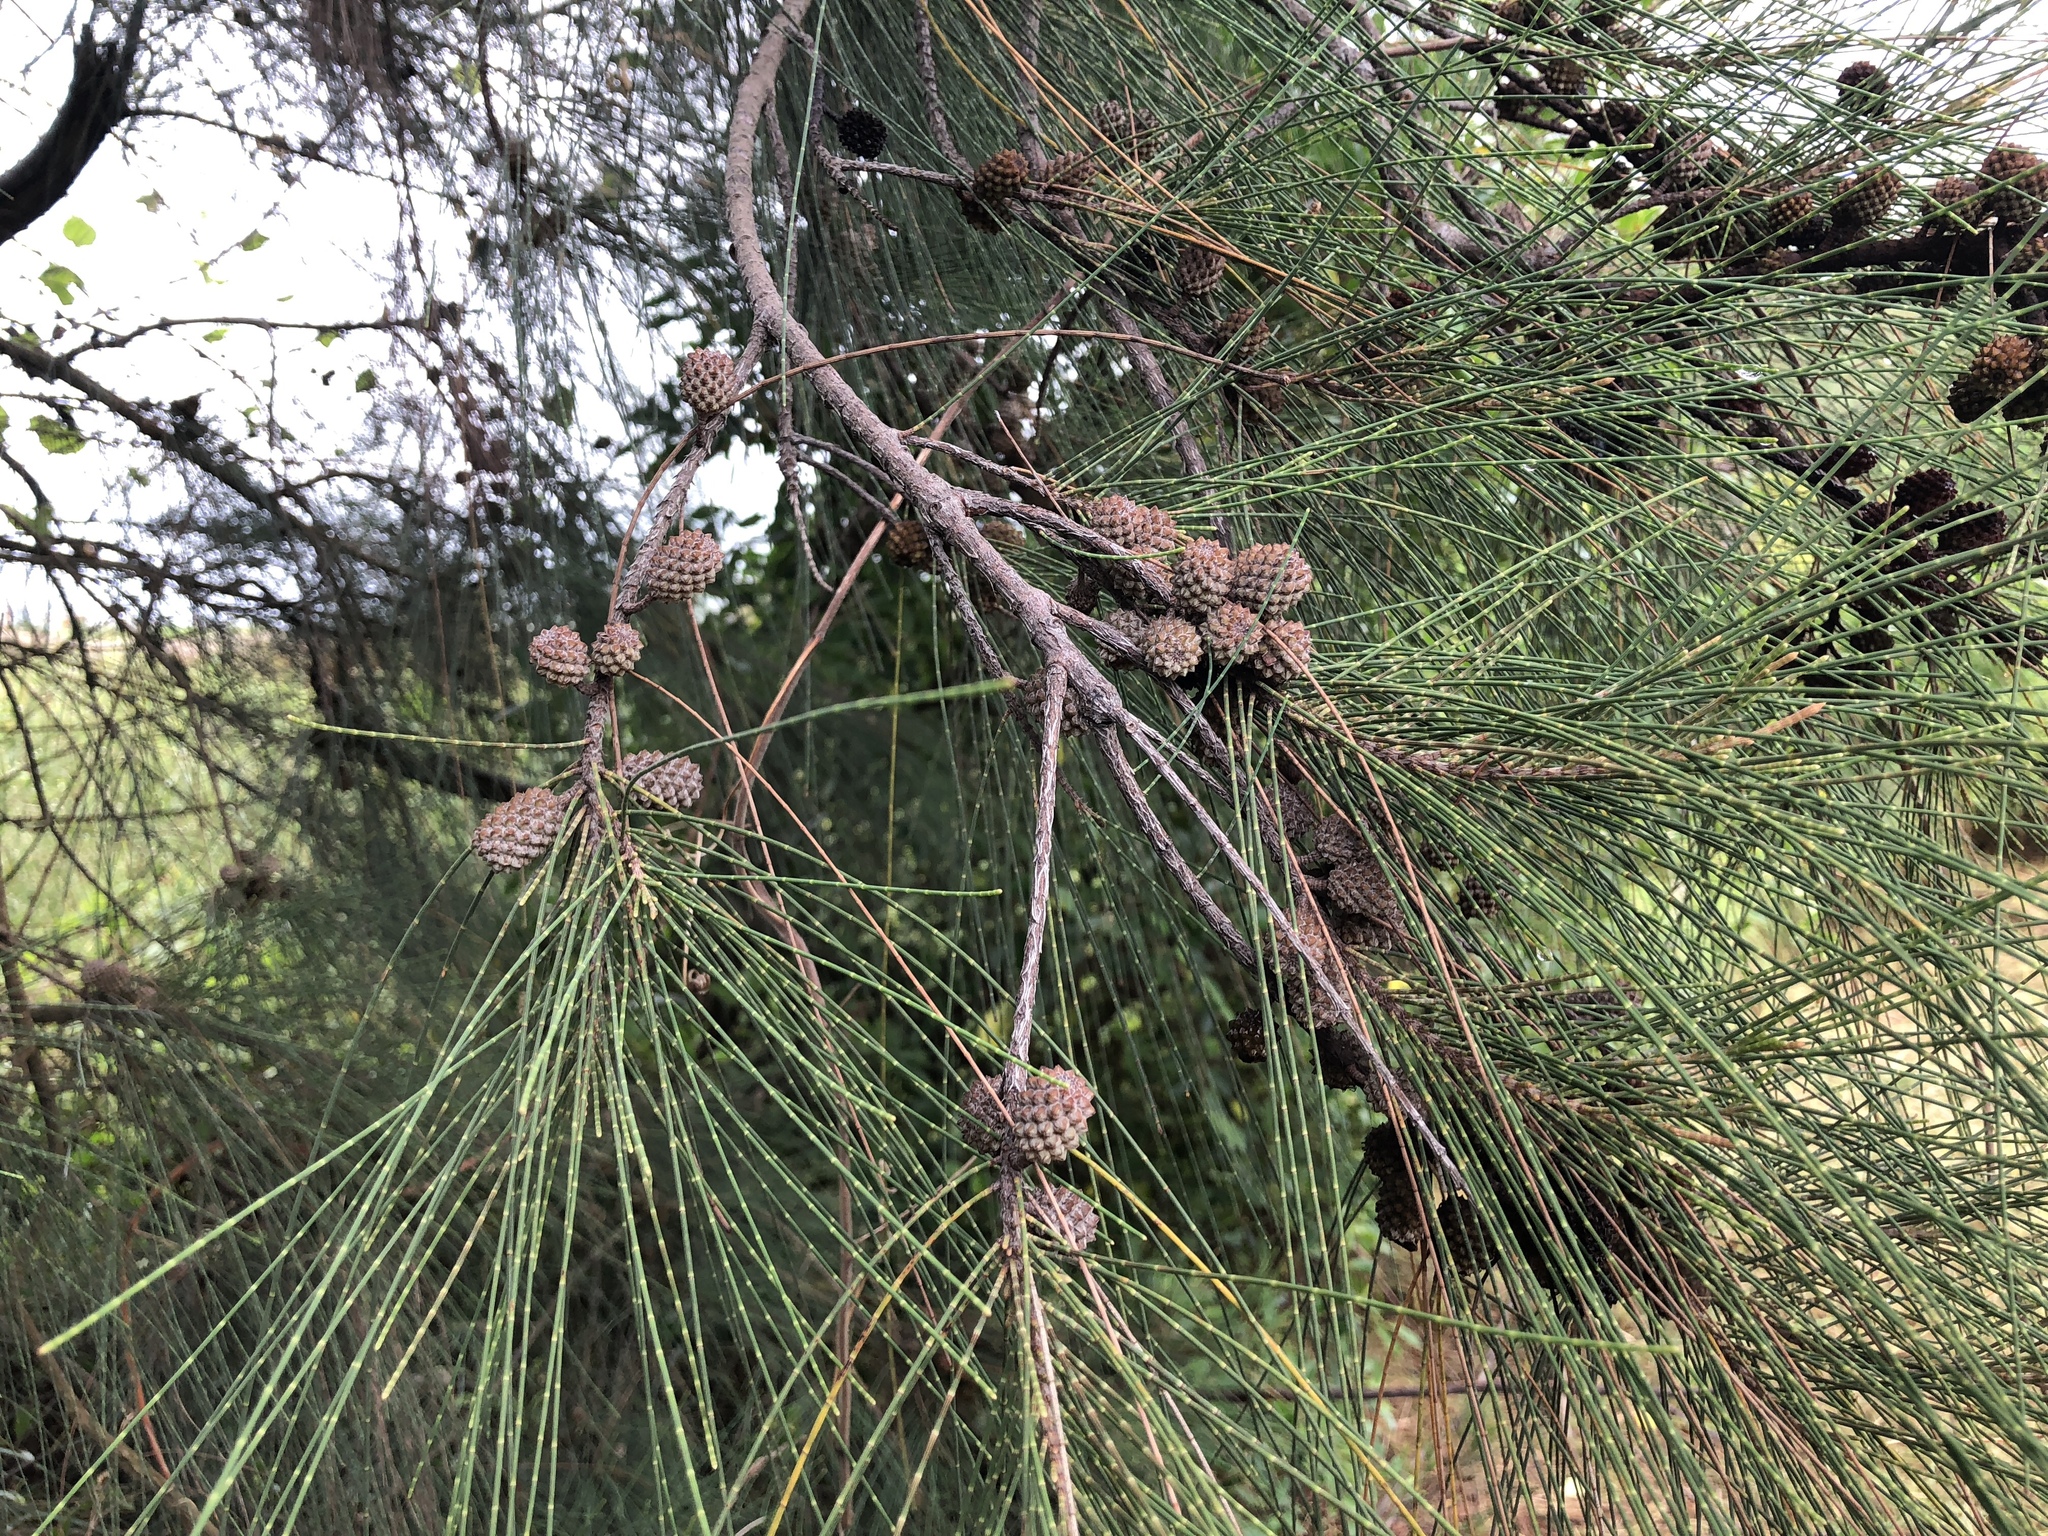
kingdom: Plantae
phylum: Tracheophyta
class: Magnoliopsida
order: Fagales
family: Casuarinaceae
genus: Casuarina
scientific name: Casuarina equisetifolia
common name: Beach sheoak
